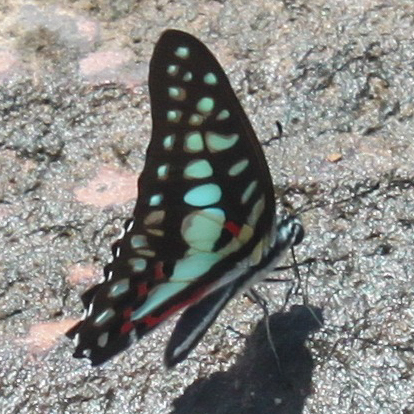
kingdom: Animalia
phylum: Arthropoda
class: Insecta
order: Lepidoptera
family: Papilionidae
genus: Graphium
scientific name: Graphium doson
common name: Common jay
